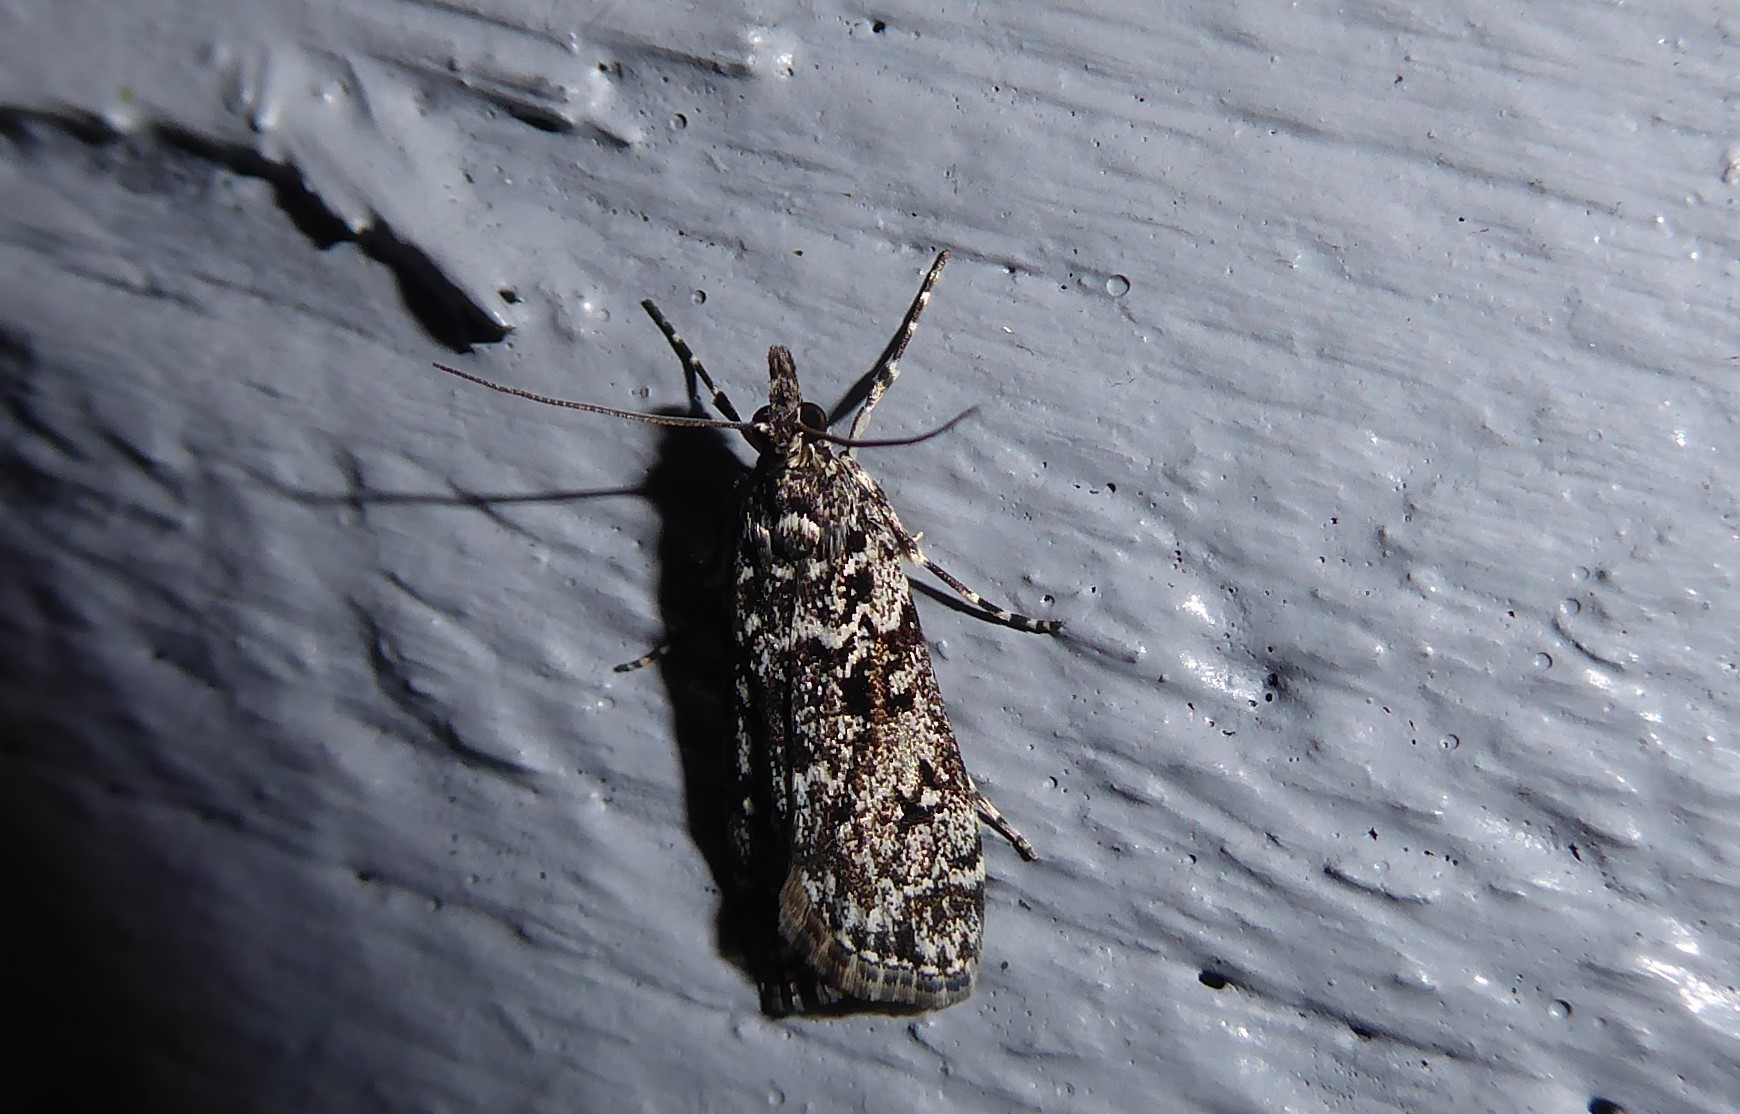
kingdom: Animalia
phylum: Arthropoda
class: Insecta
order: Lepidoptera
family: Crambidae
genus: Eudonia
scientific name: Eudonia philerga
